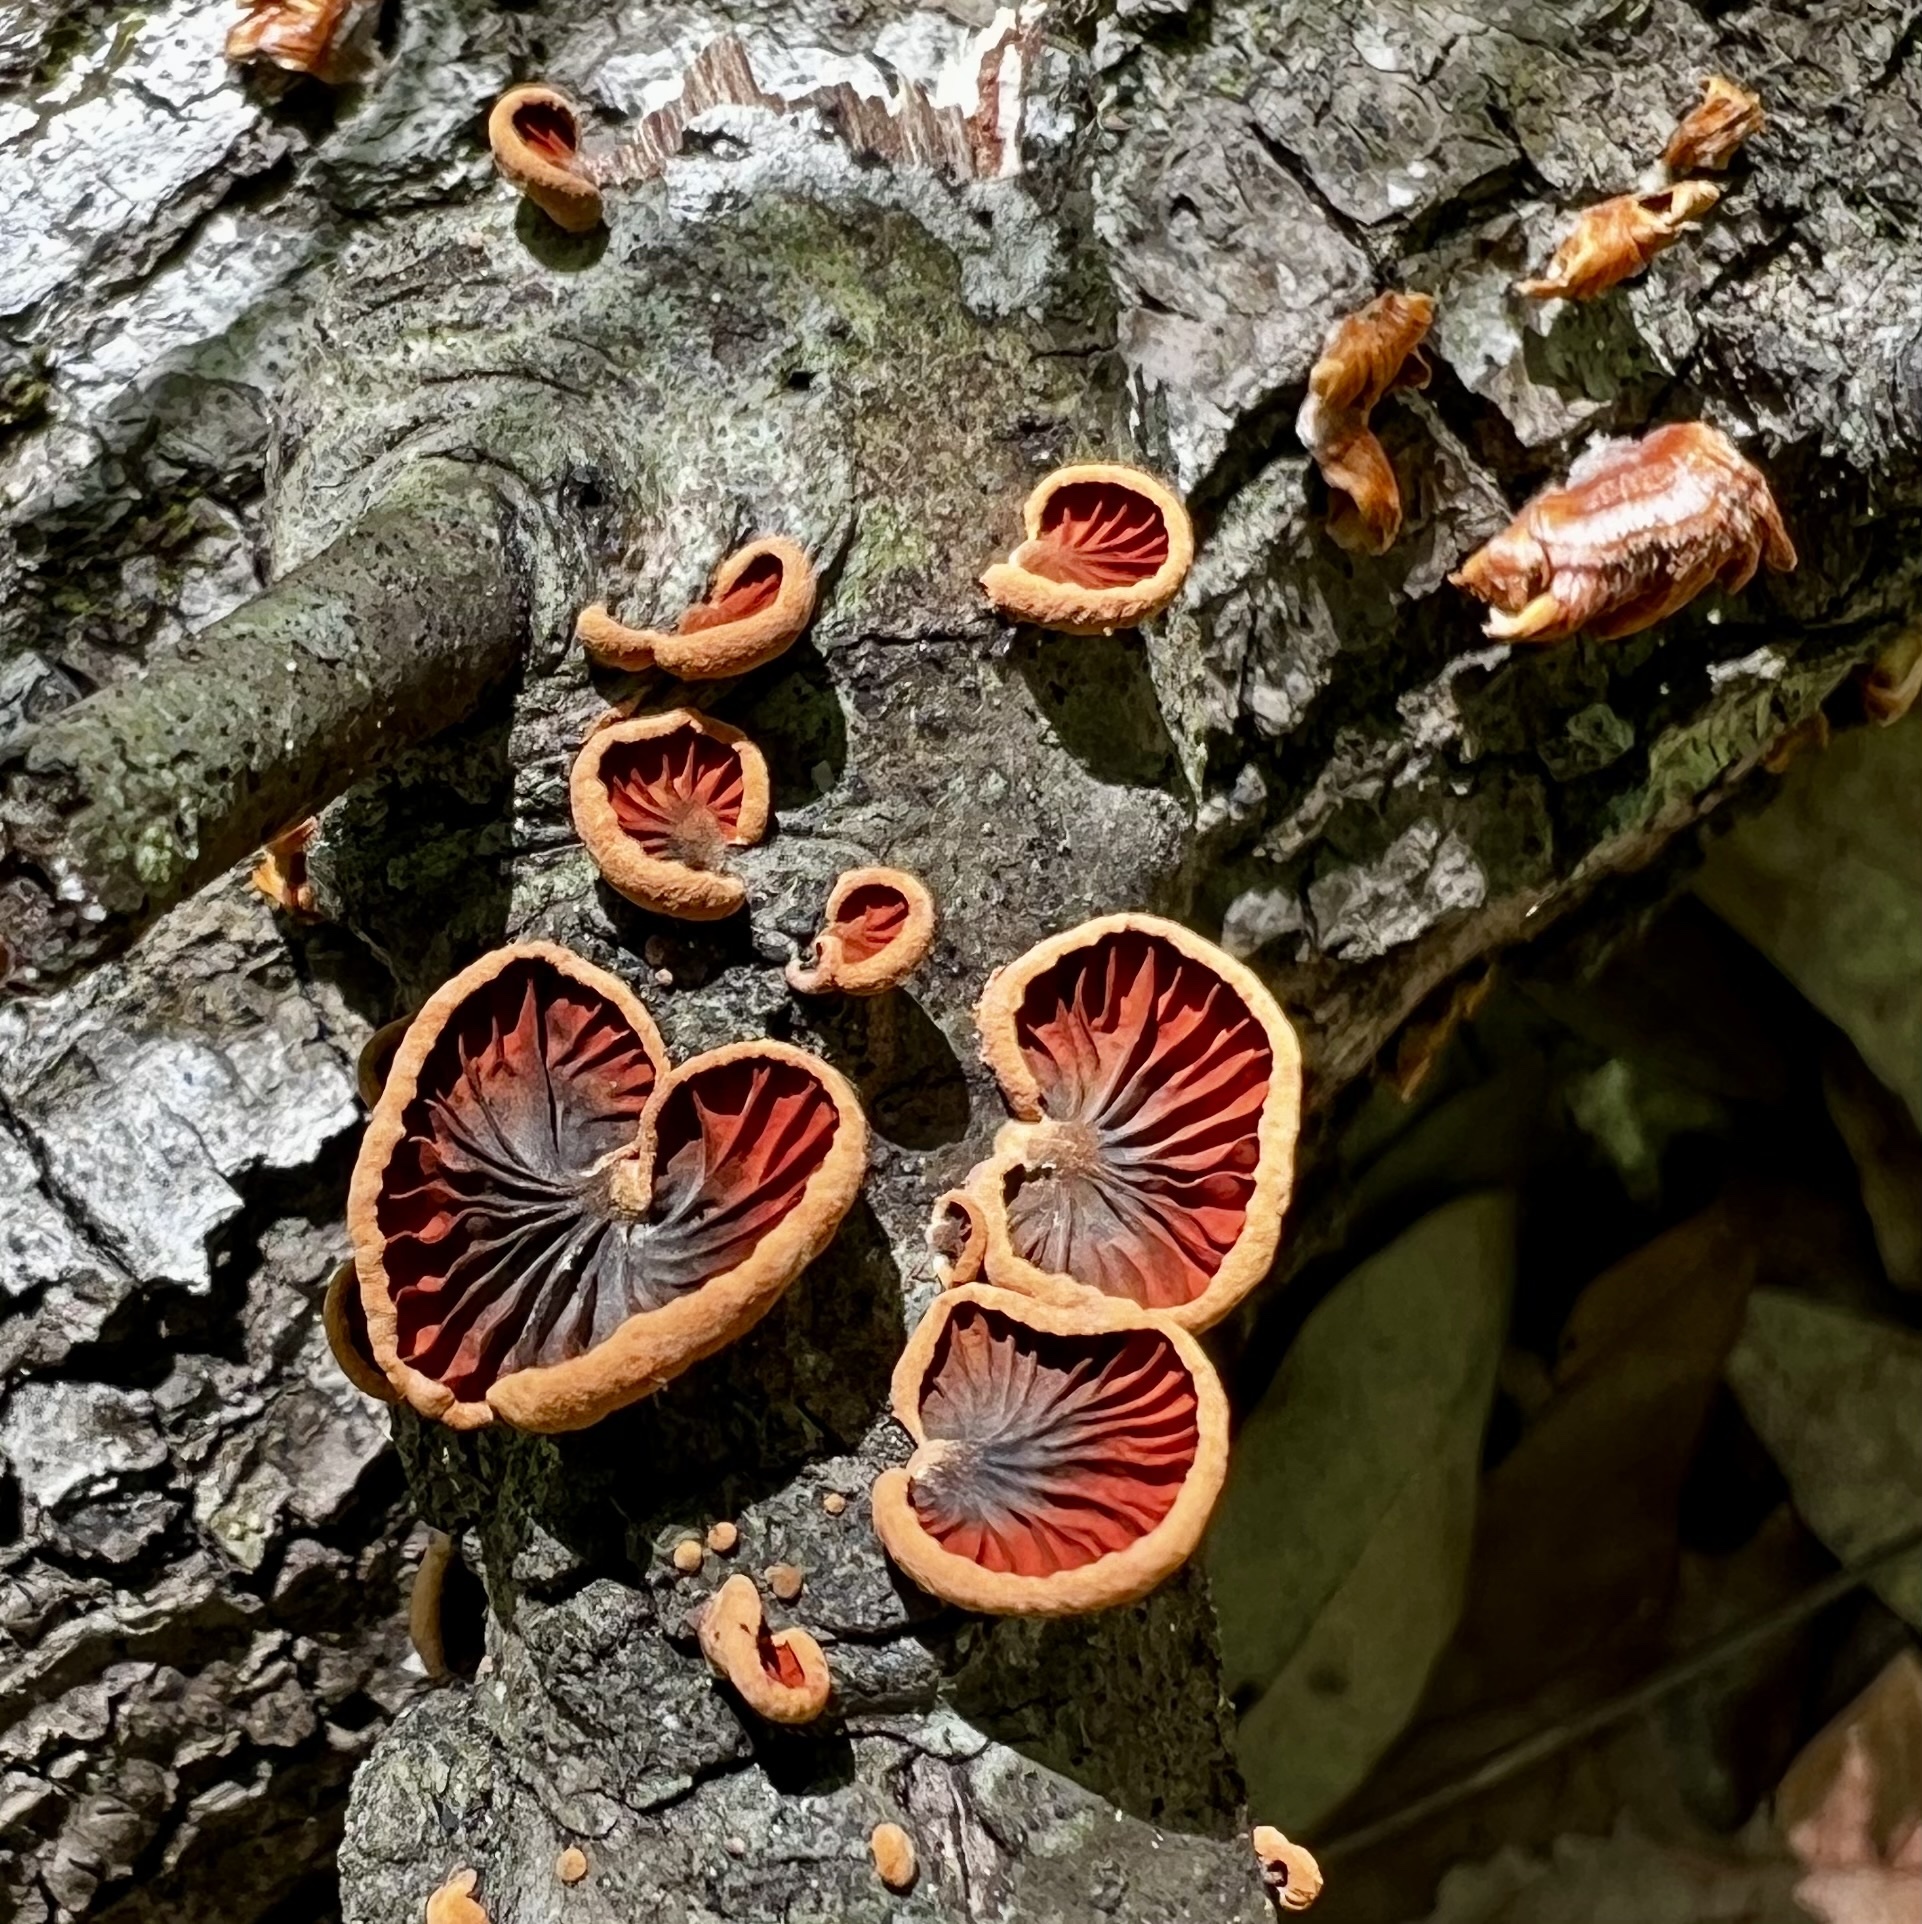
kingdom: Fungi
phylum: Basidiomycota
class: Agaricomycetes
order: Agaricales
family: Omphalotaceae
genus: Anthracophyllum
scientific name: Anthracophyllum lateritium
